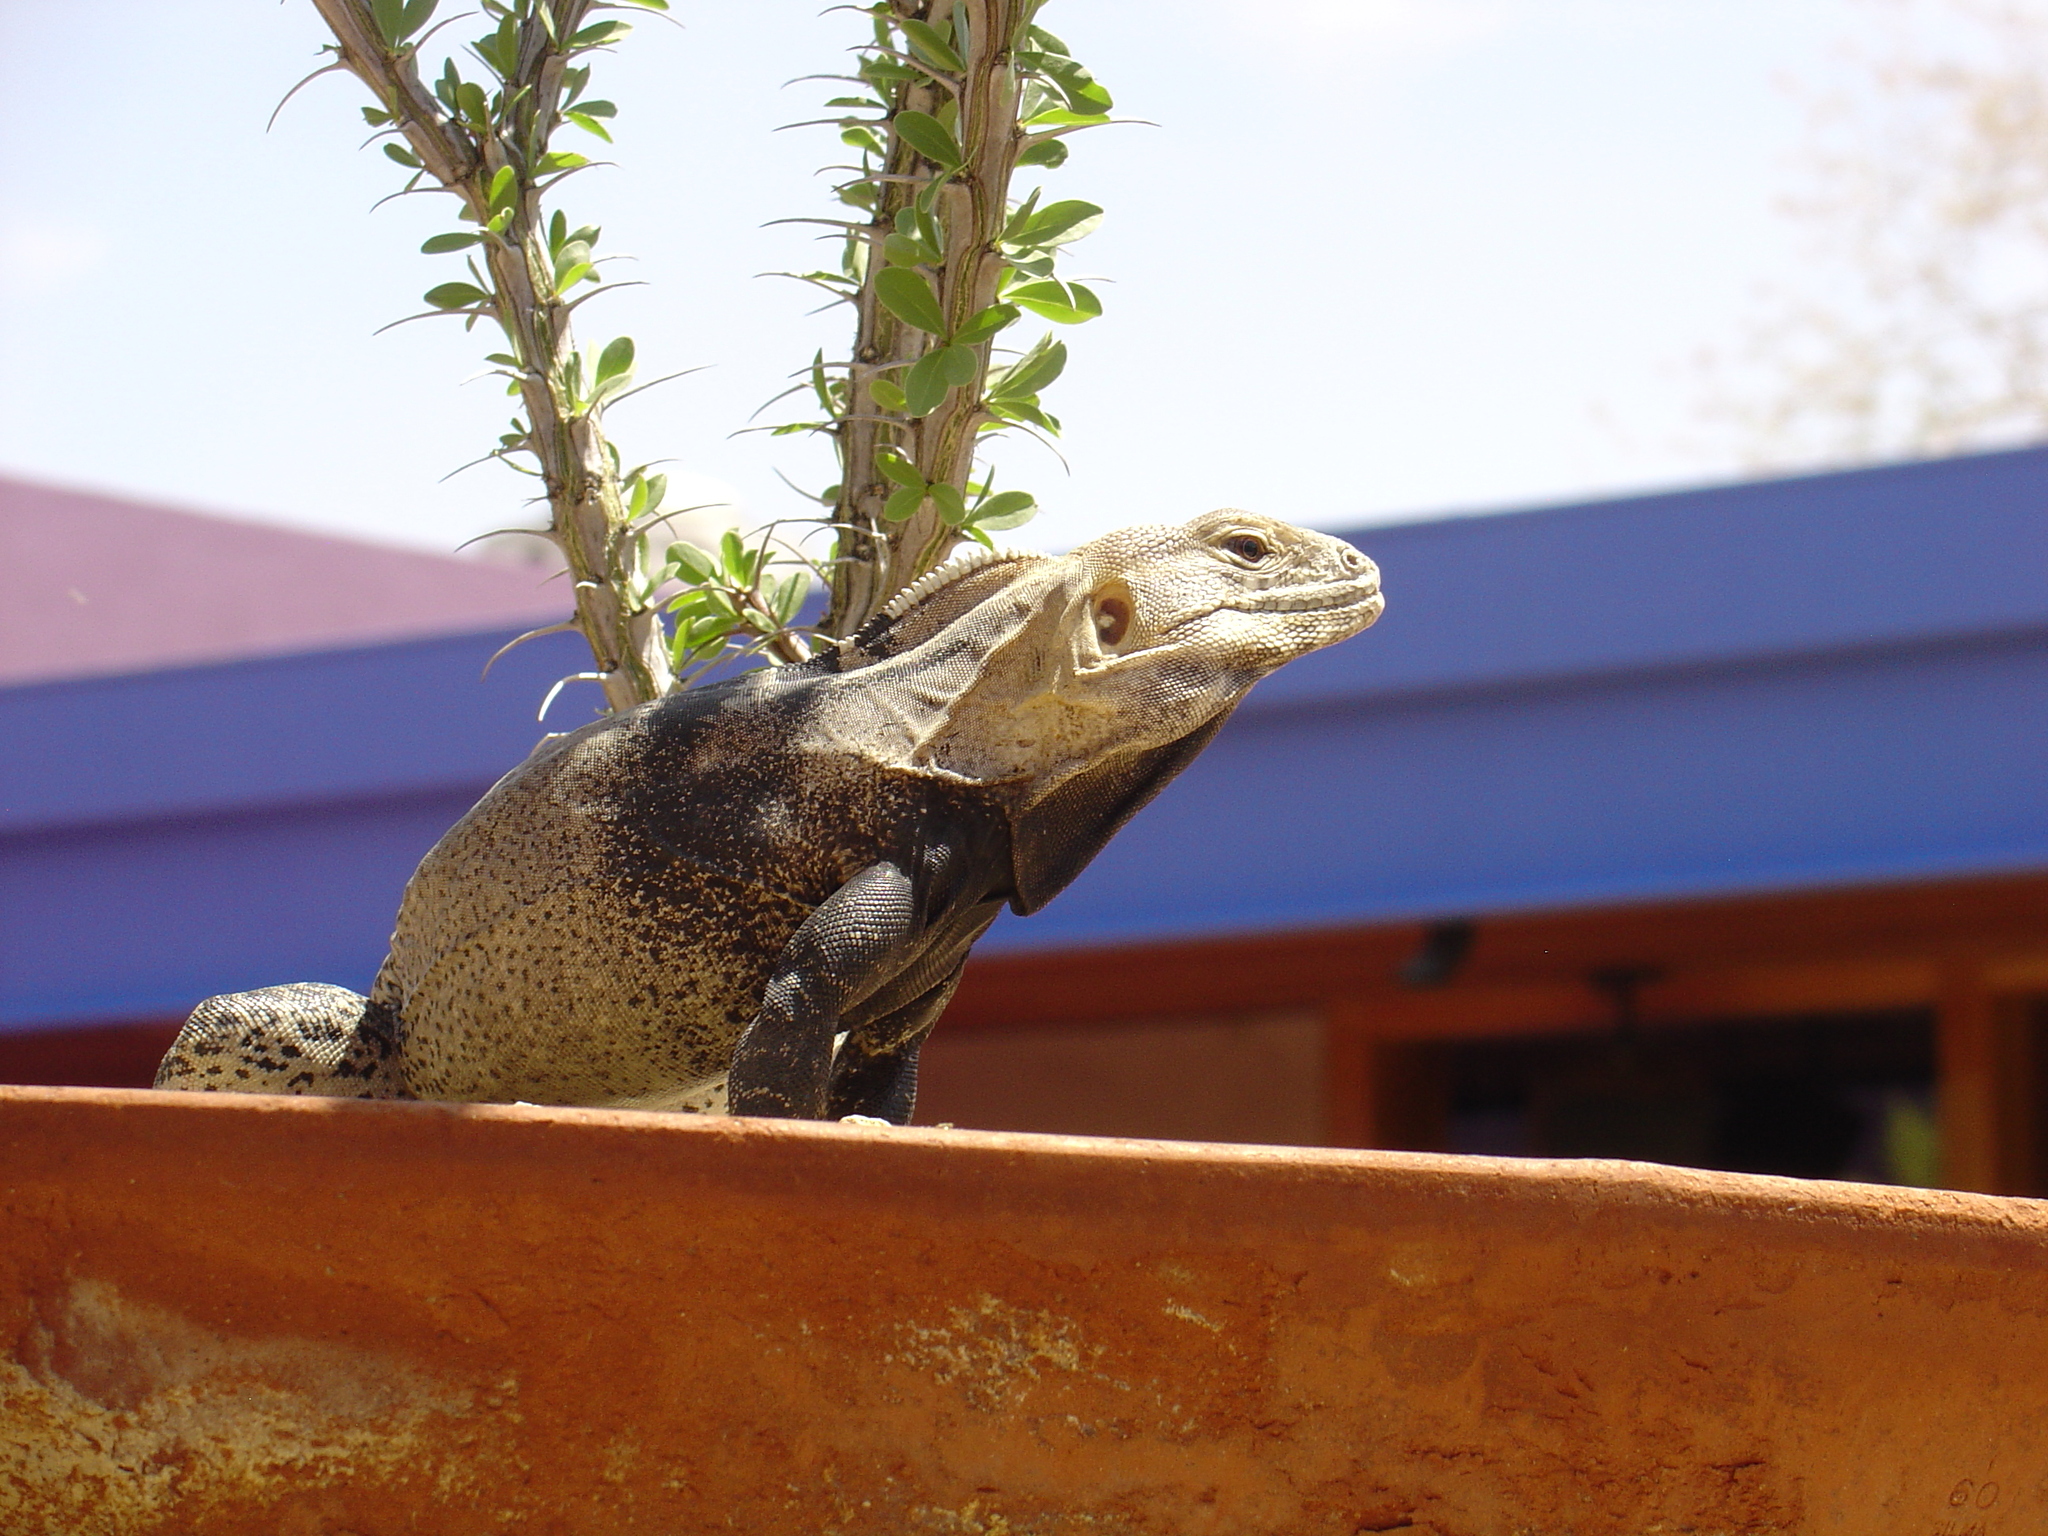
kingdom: Animalia
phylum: Chordata
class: Squamata
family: Iguanidae
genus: Ctenosaura
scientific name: Ctenosaura
